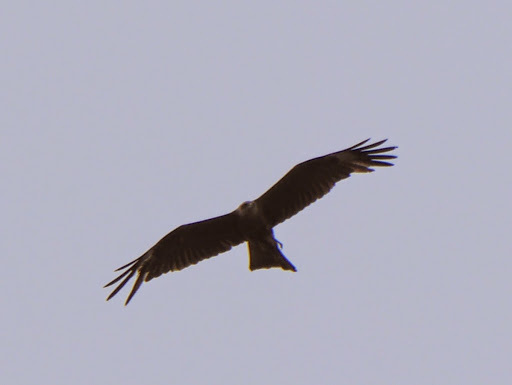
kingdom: Animalia
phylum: Chordata
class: Aves
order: Accipitriformes
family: Accipitridae
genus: Milvus
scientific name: Milvus migrans
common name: Black kite
